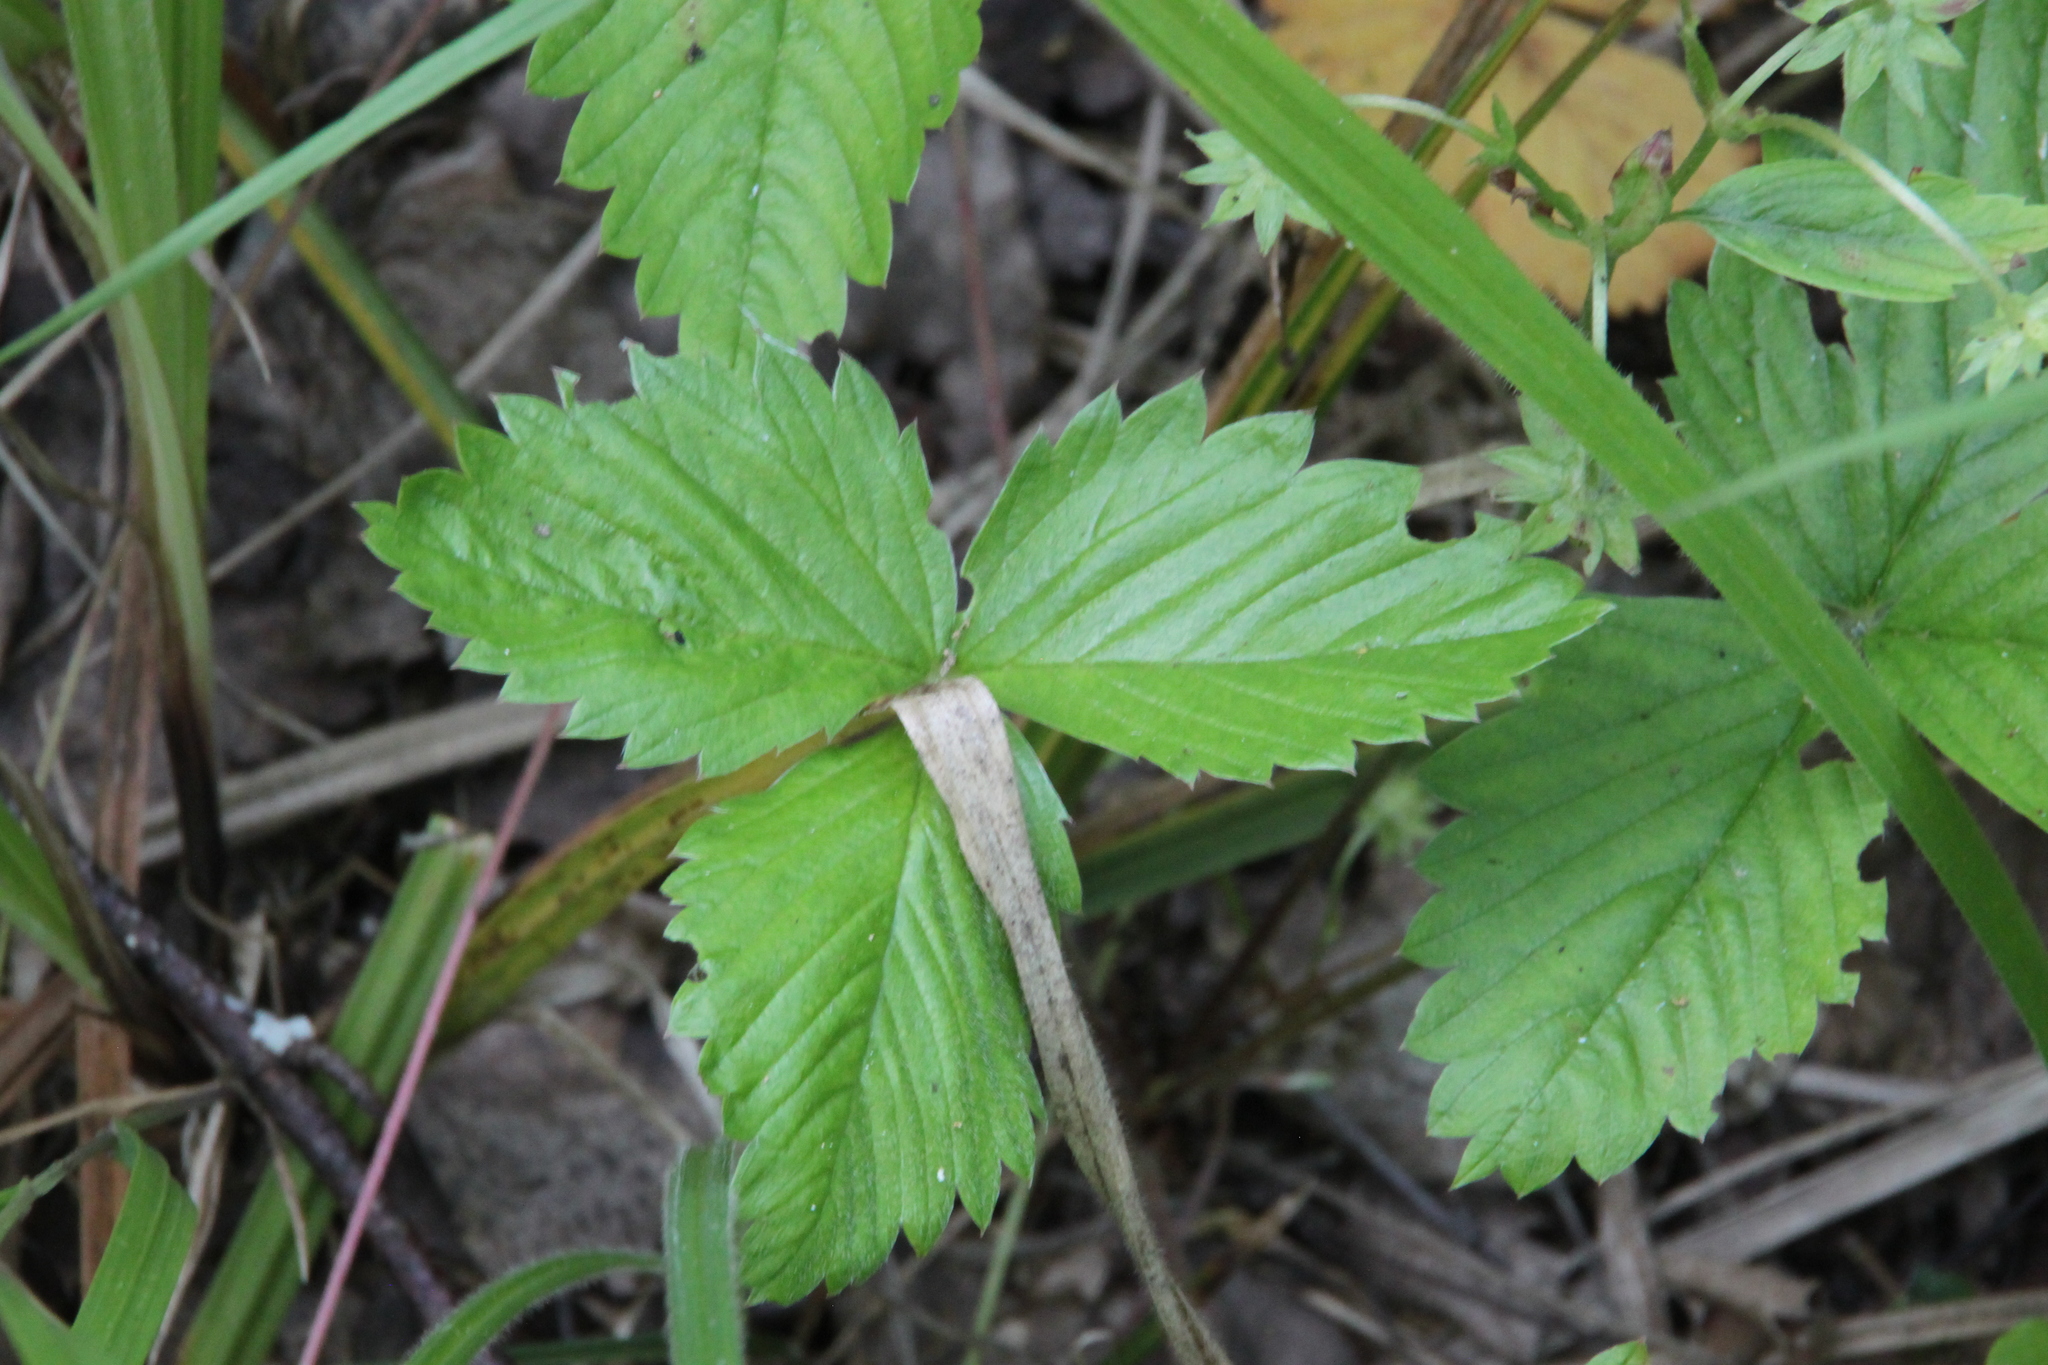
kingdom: Plantae
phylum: Tracheophyta
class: Magnoliopsida
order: Rosales
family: Rosaceae
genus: Fragaria
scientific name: Fragaria vesca
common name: Wild strawberry
